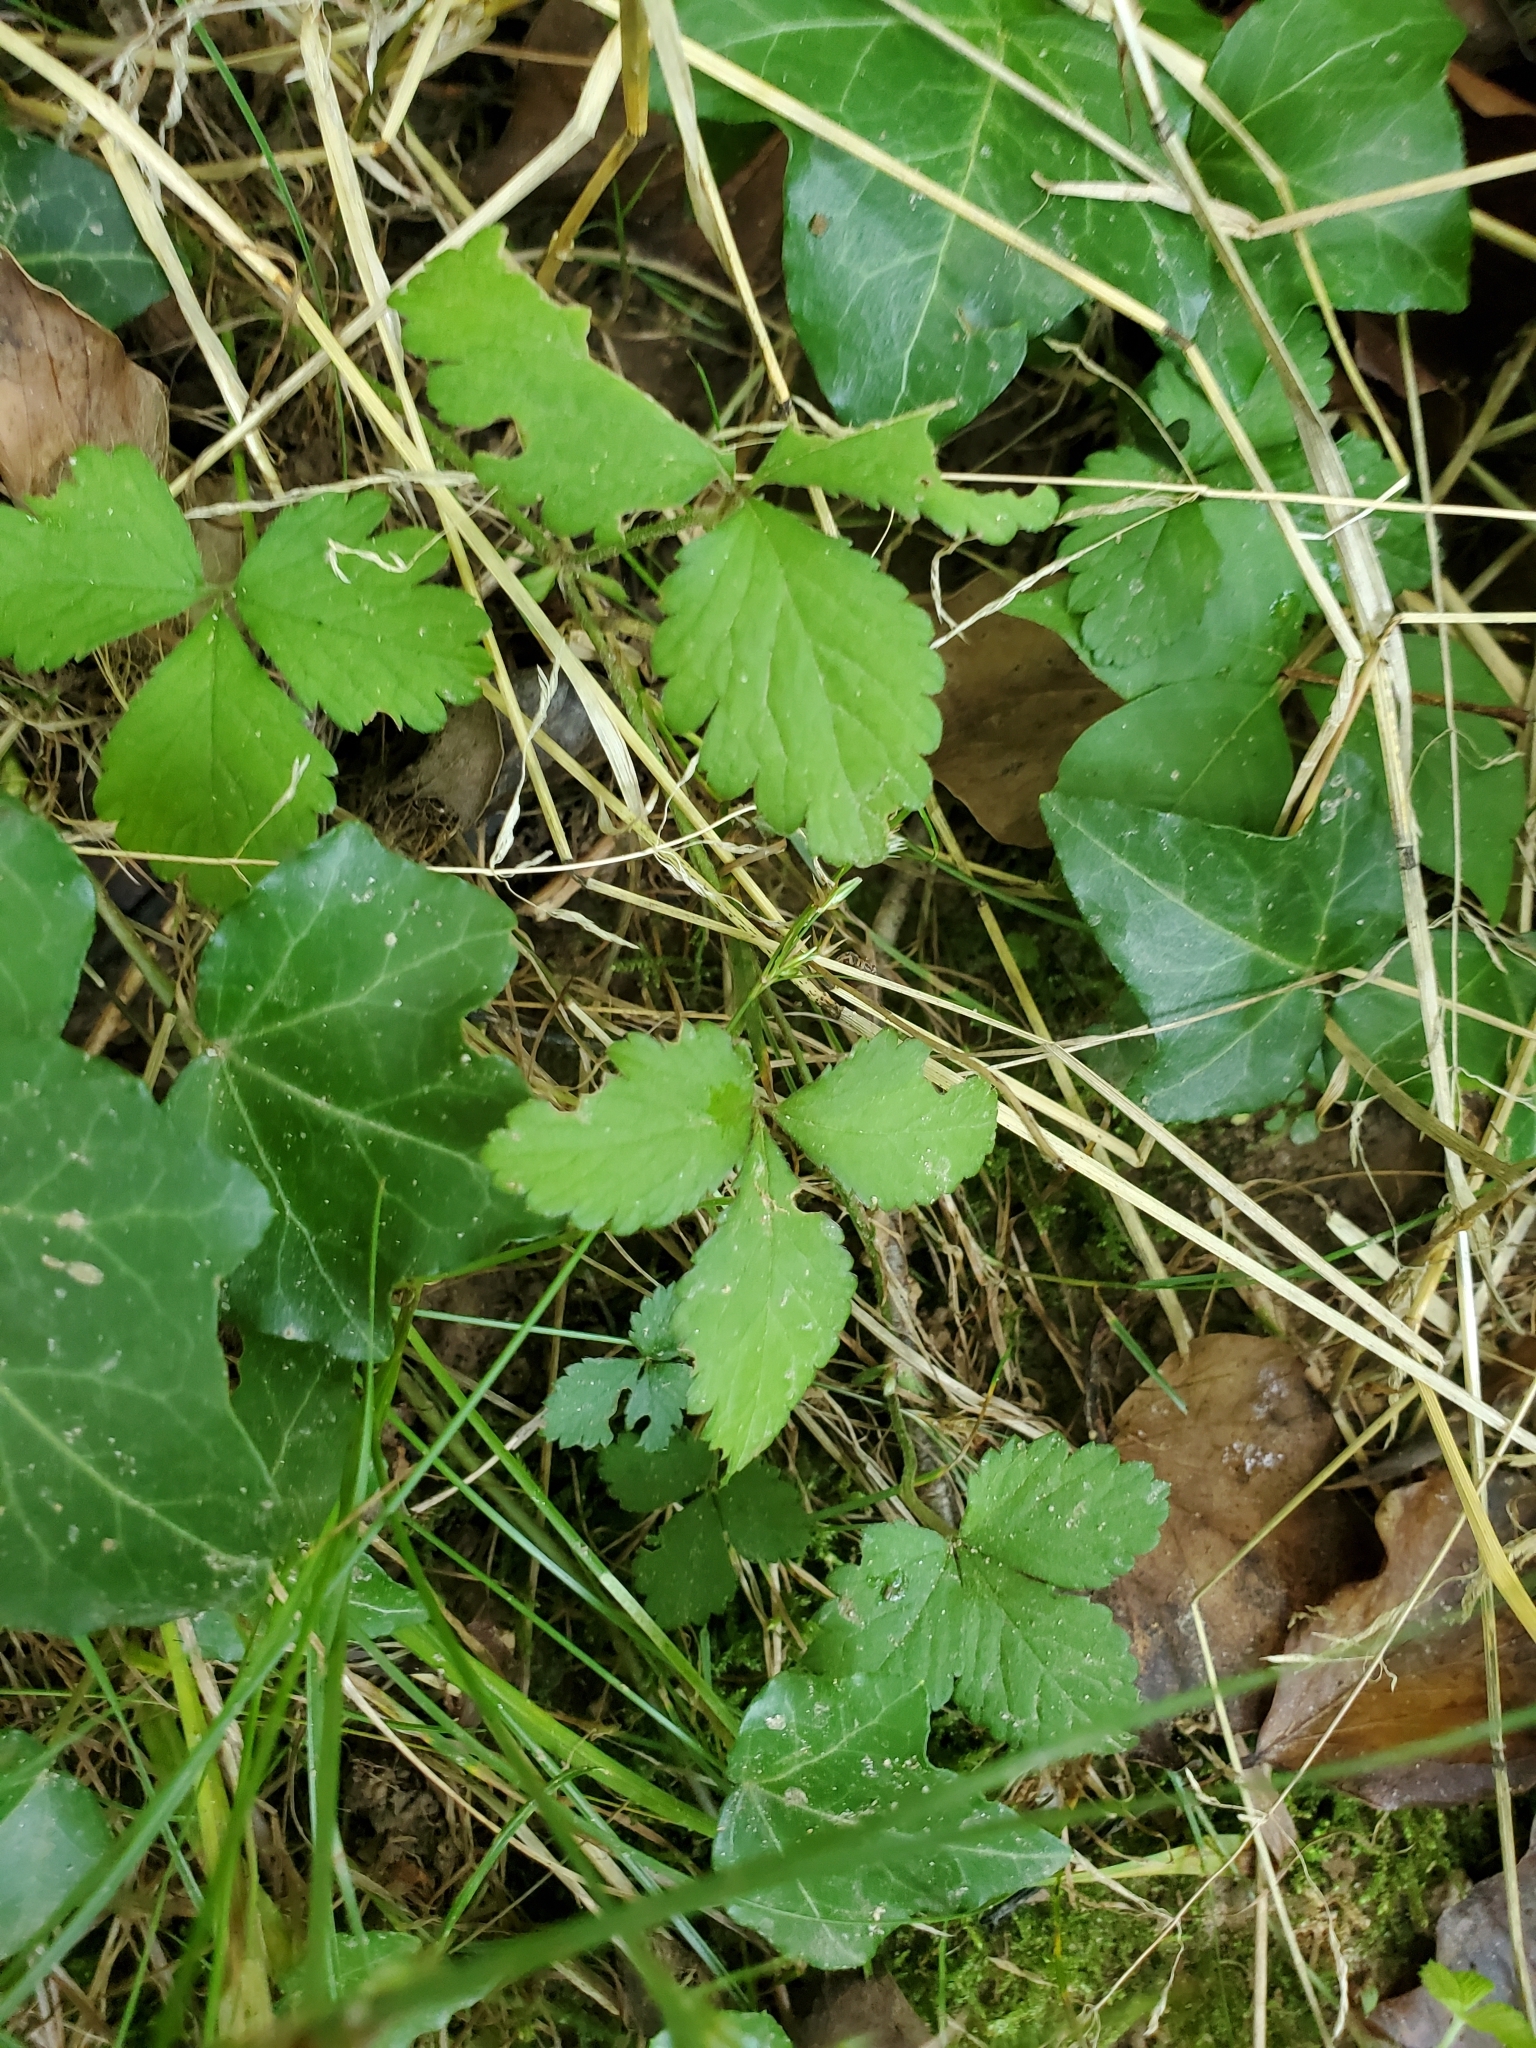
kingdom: Plantae
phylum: Tracheophyta
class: Magnoliopsida
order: Rosales
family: Rosaceae
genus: Potentilla
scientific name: Potentilla indica
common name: Yellow-flowered strawberry
